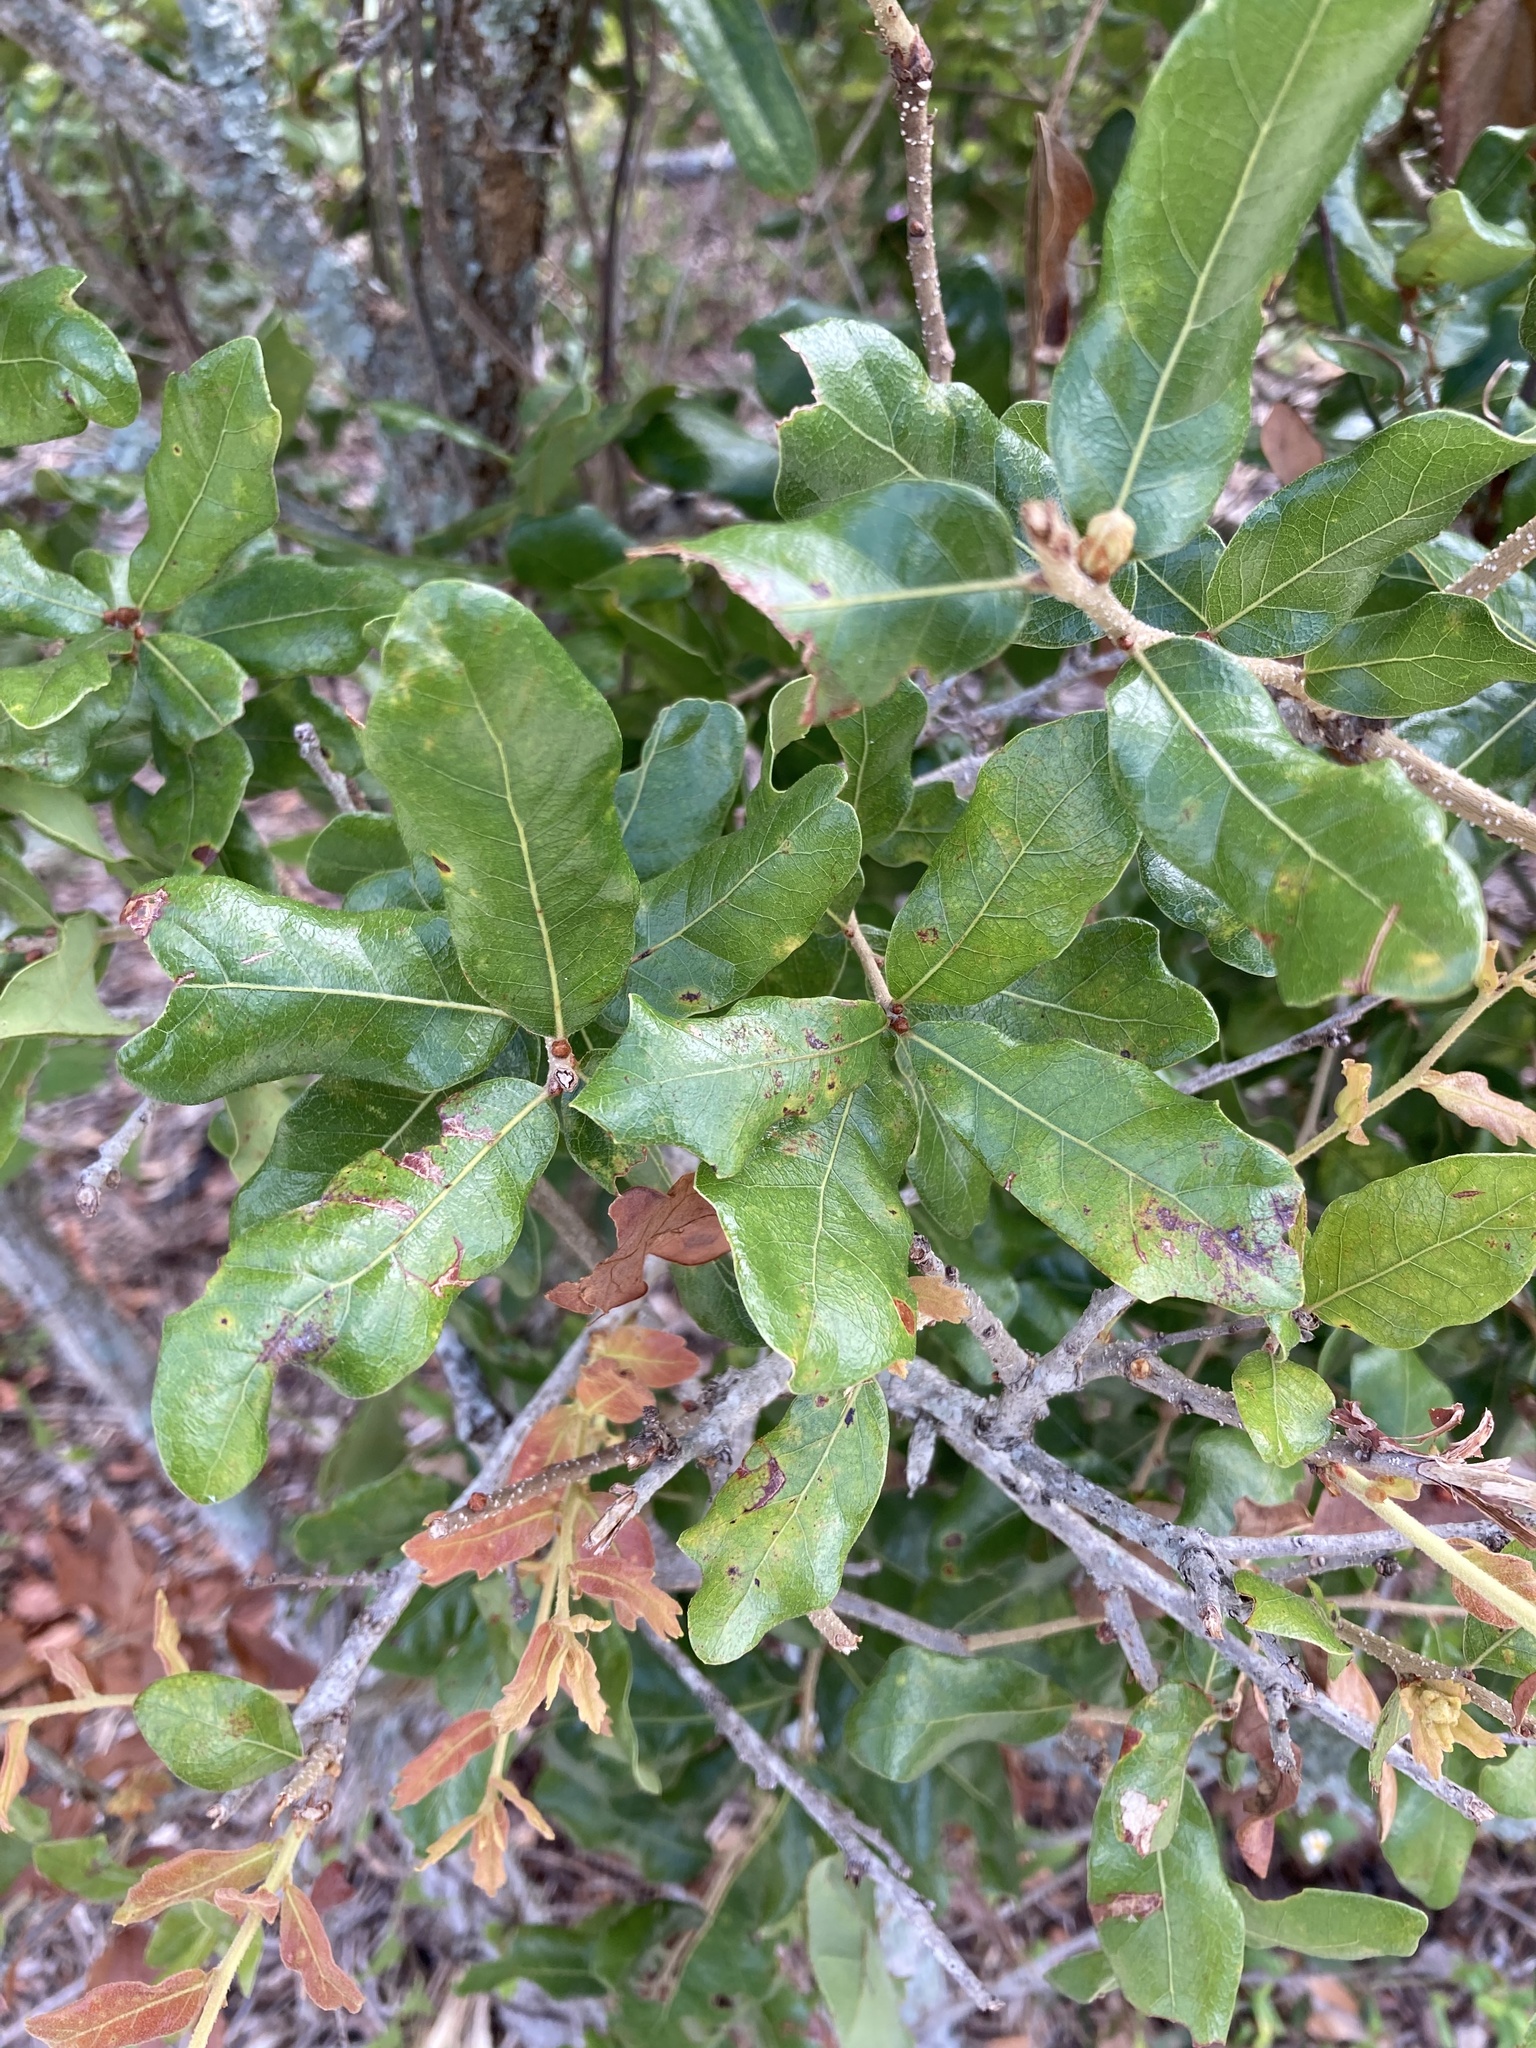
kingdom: Plantae
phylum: Tracheophyta
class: Magnoliopsida
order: Fagales
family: Fagaceae
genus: Quercus
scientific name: Quercus chapmanii
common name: Chapman oak
